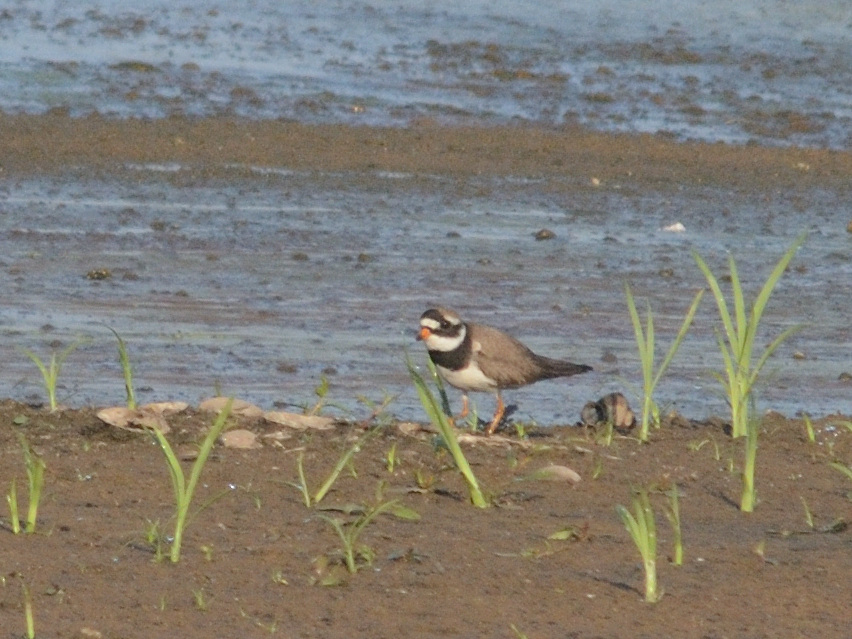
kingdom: Animalia
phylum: Chordata
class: Aves
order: Charadriiformes
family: Charadriidae
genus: Charadrius
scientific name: Charadrius hiaticula
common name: Common ringed plover
